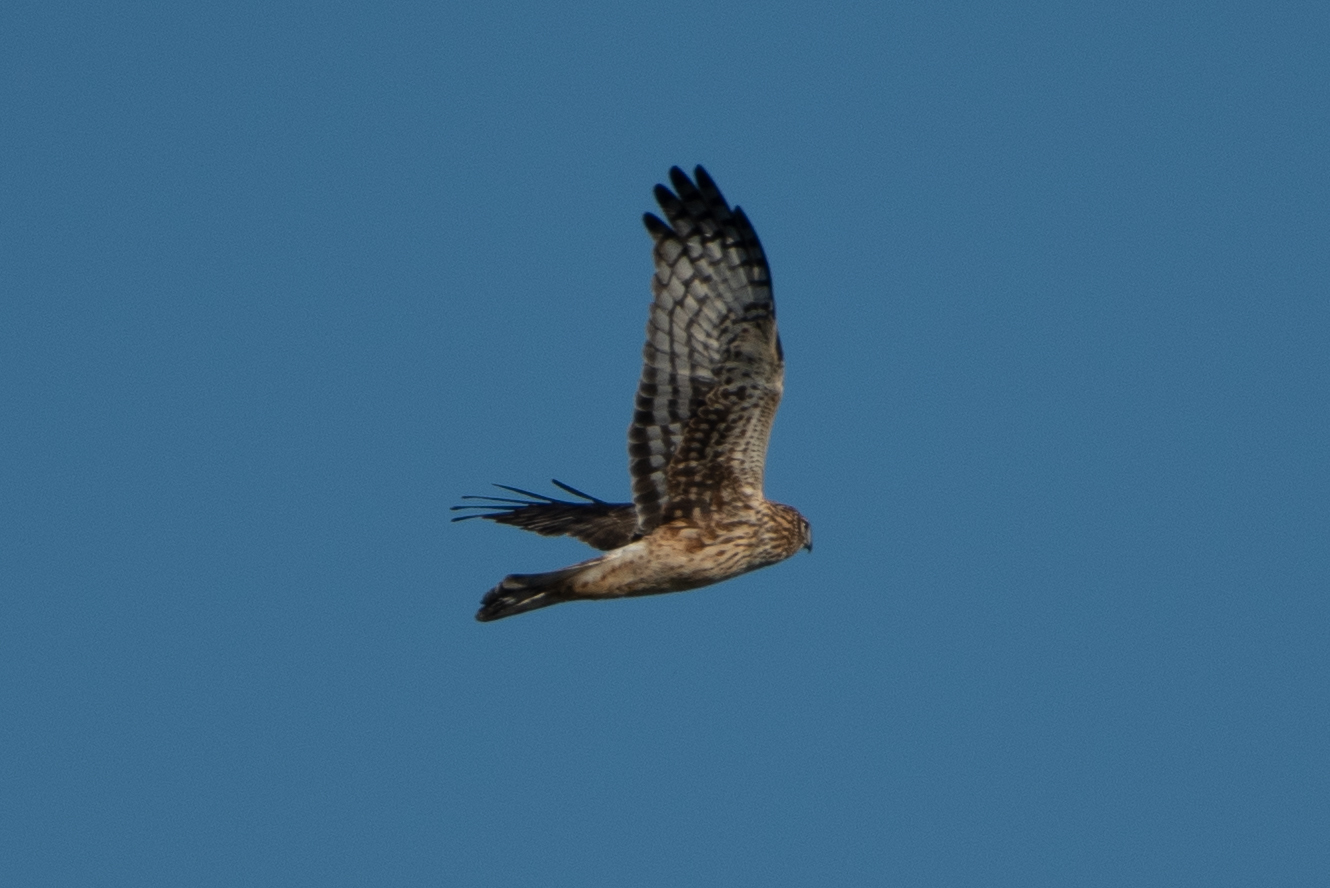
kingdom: Animalia
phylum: Chordata
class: Aves
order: Accipitriformes
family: Accipitridae
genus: Circus
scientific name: Circus cyaneus
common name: Hen harrier
